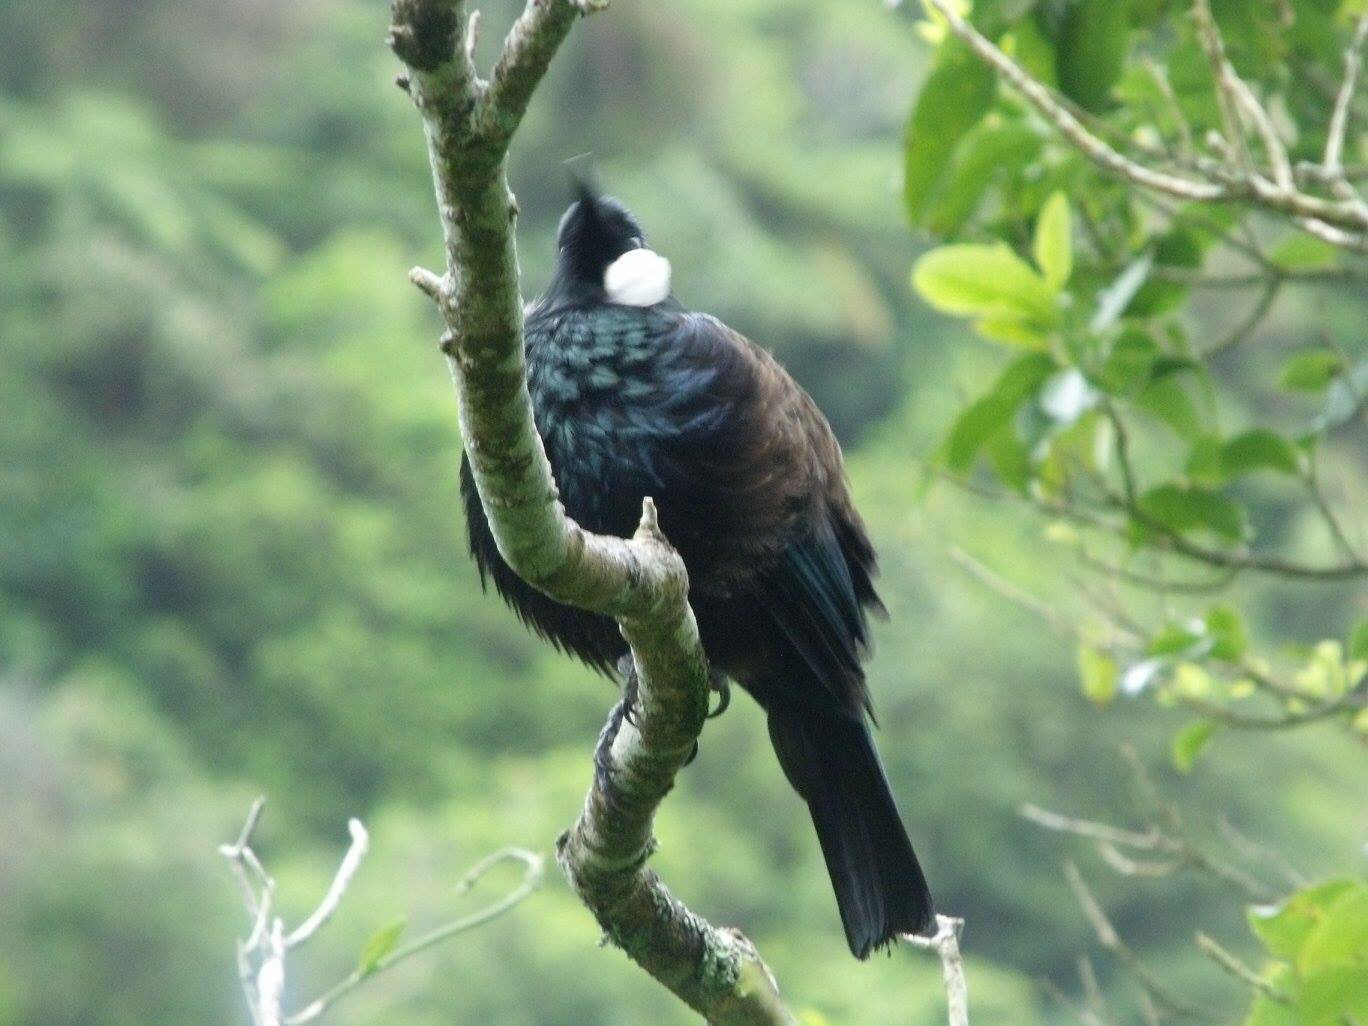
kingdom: Animalia
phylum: Chordata
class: Aves
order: Passeriformes
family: Meliphagidae
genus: Prosthemadera
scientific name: Prosthemadera novaeseelandiae
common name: Tui
